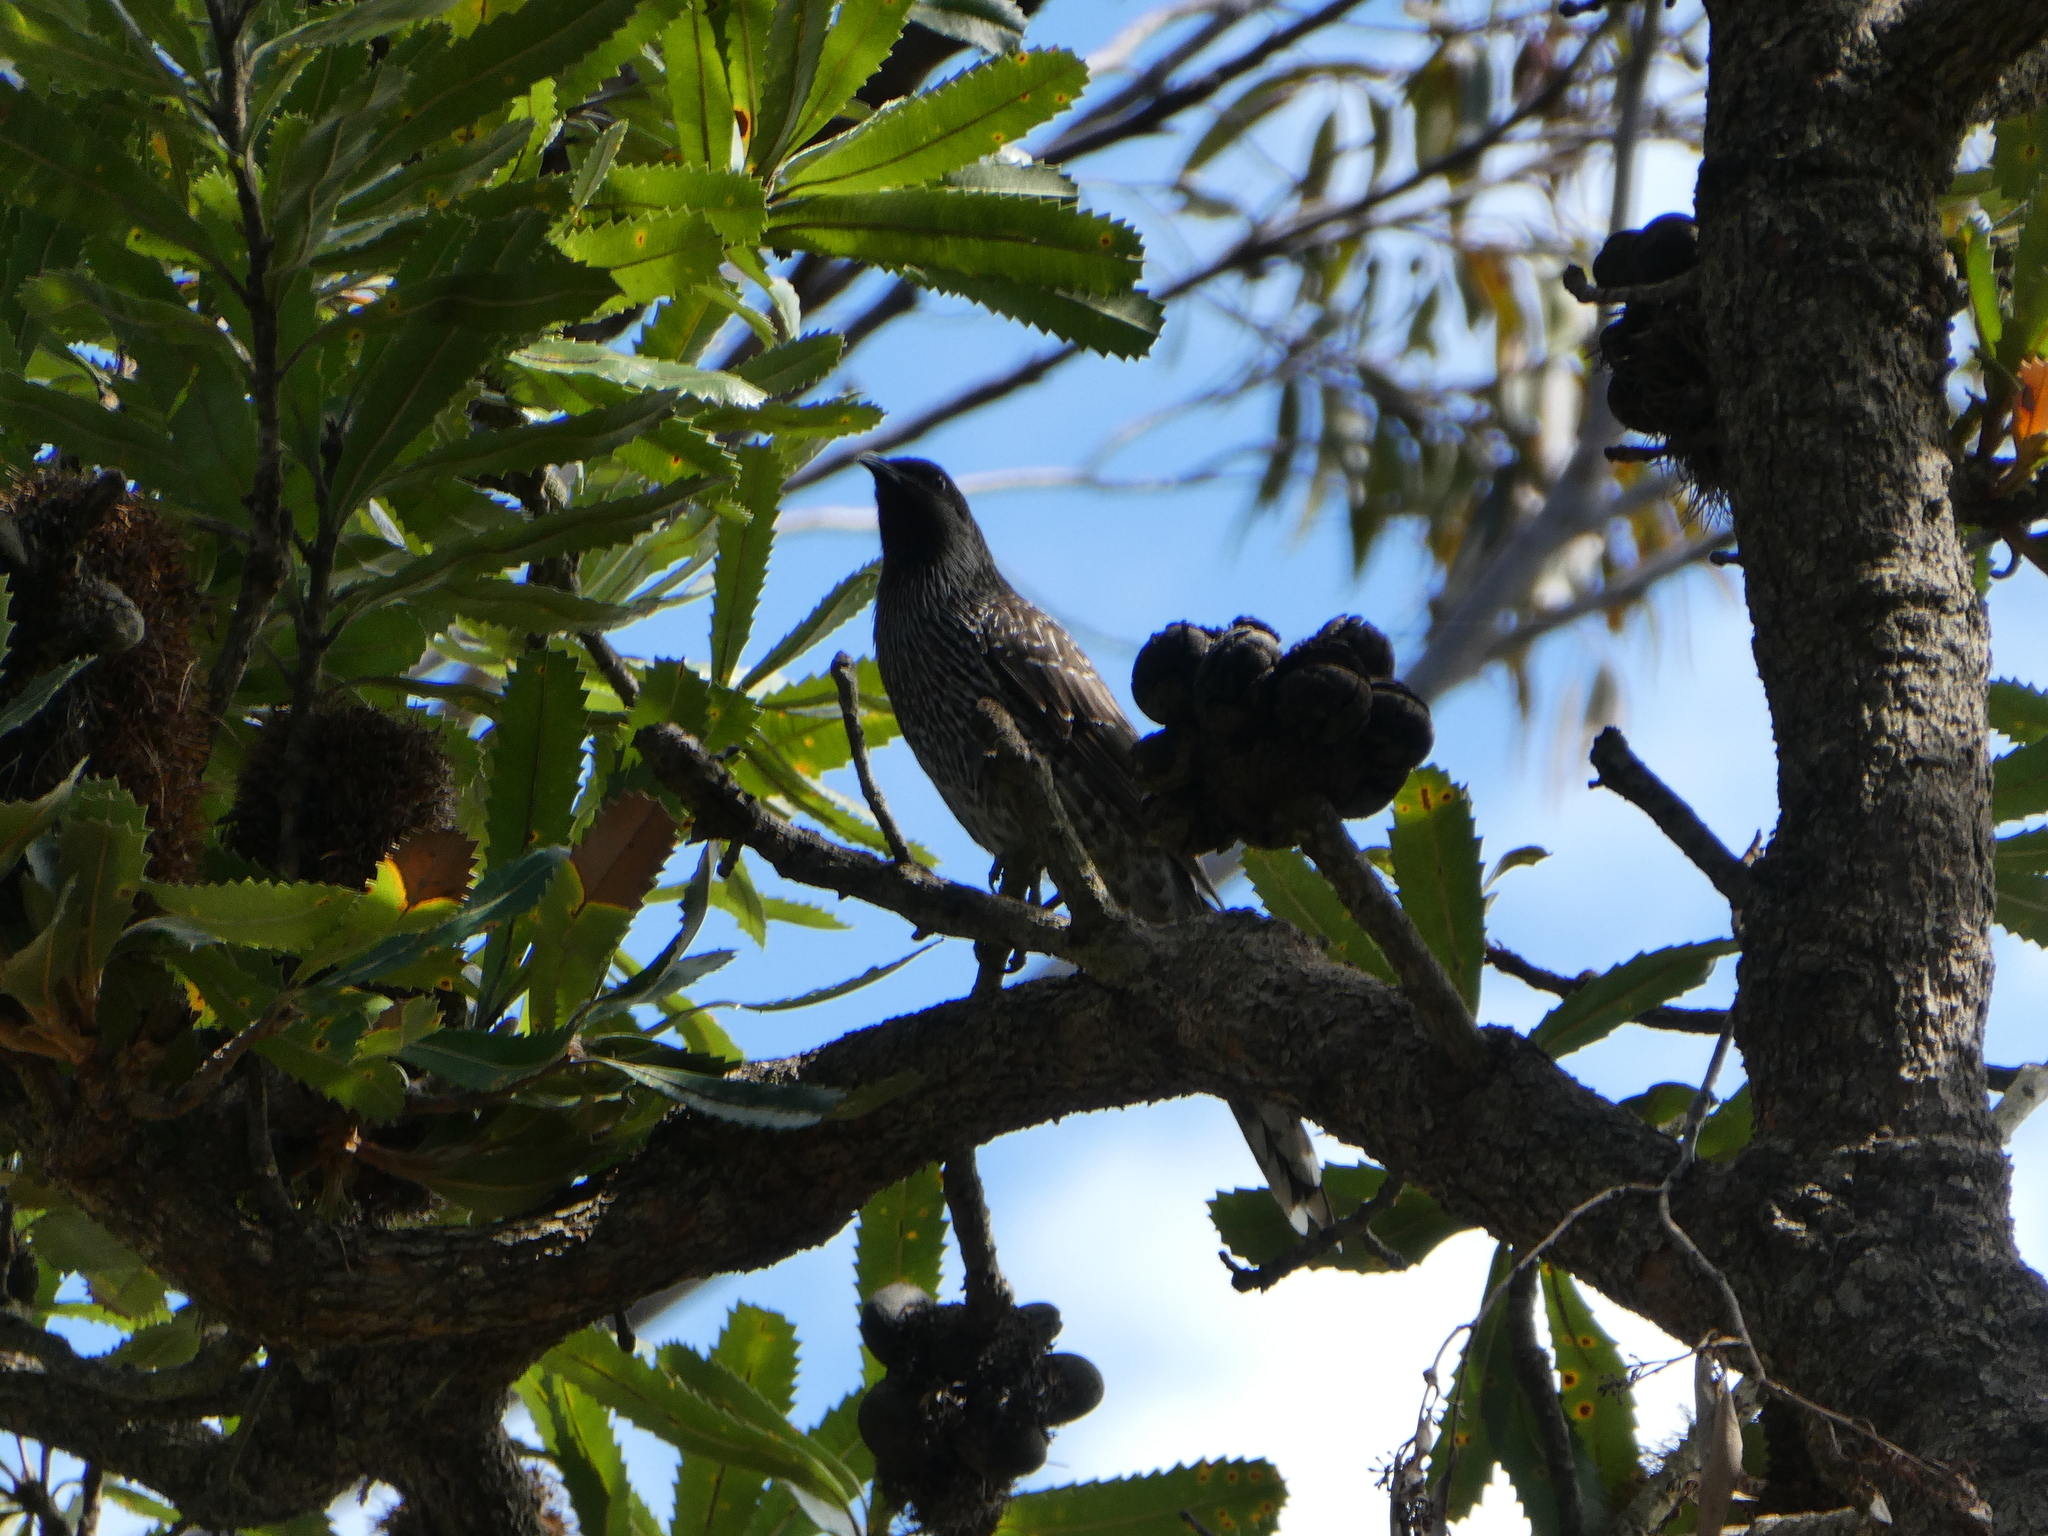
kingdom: Animalia
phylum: Chordata
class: Aves
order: Passeriformes
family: Meliphagidae
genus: Anthochaera
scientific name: Anthochaera chrysoptera
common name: Little wattlebird
